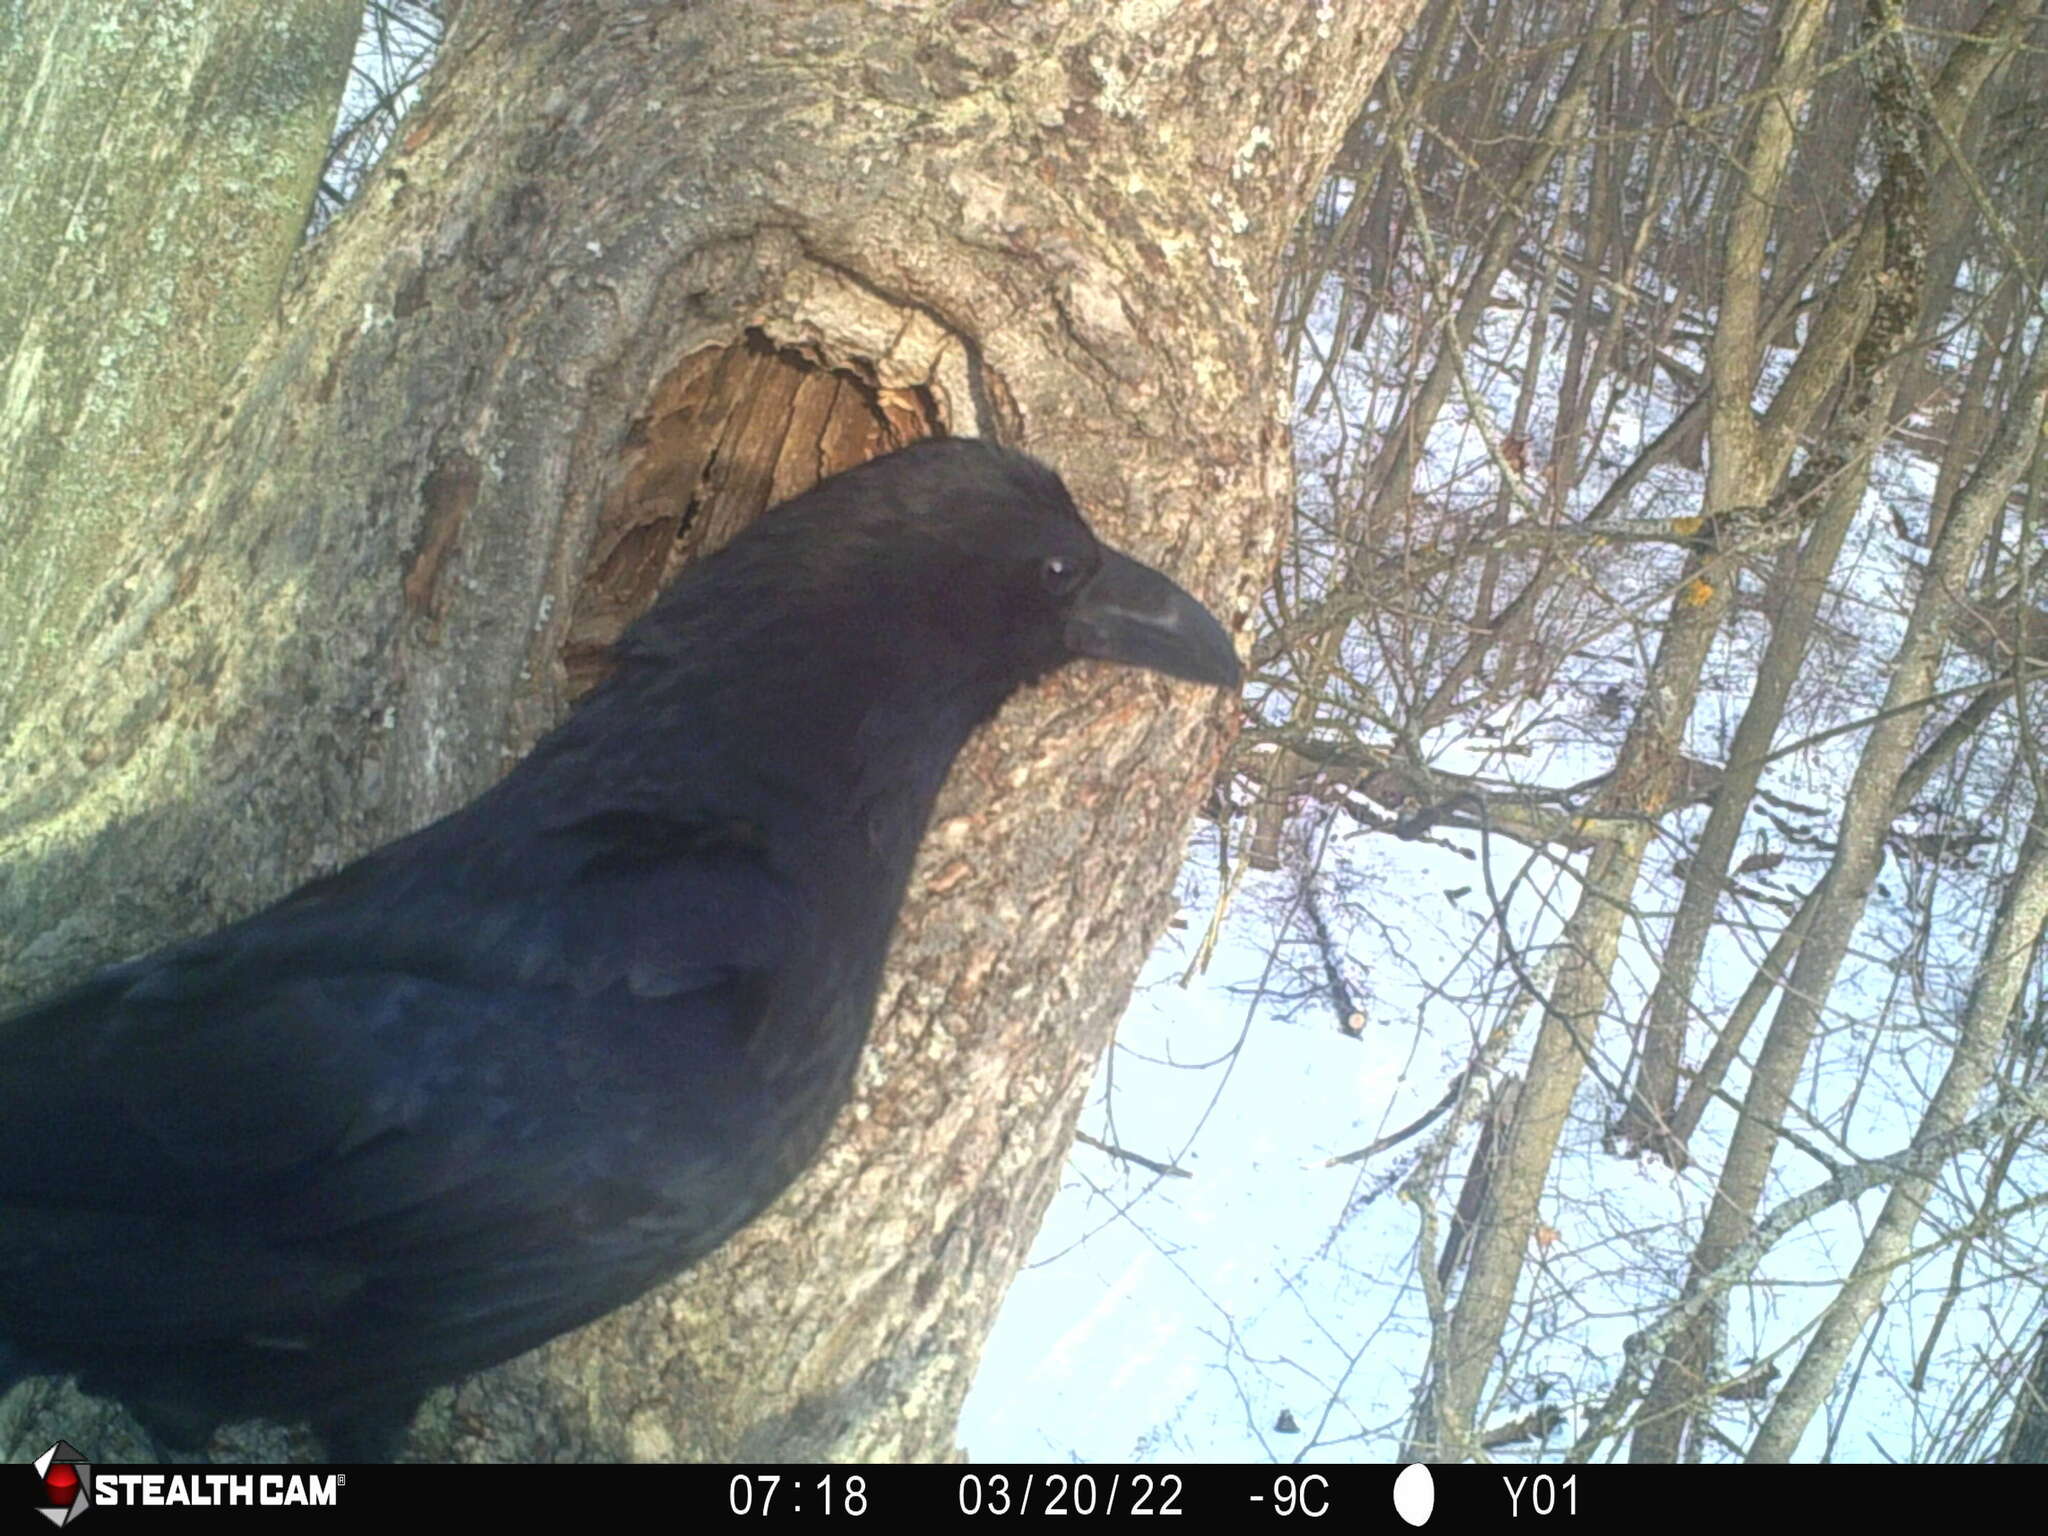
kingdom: Animalia
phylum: Chordata
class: Aves
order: Passeriformes
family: Corvidae
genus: Corvus
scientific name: Corvus corax
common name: Common raven
